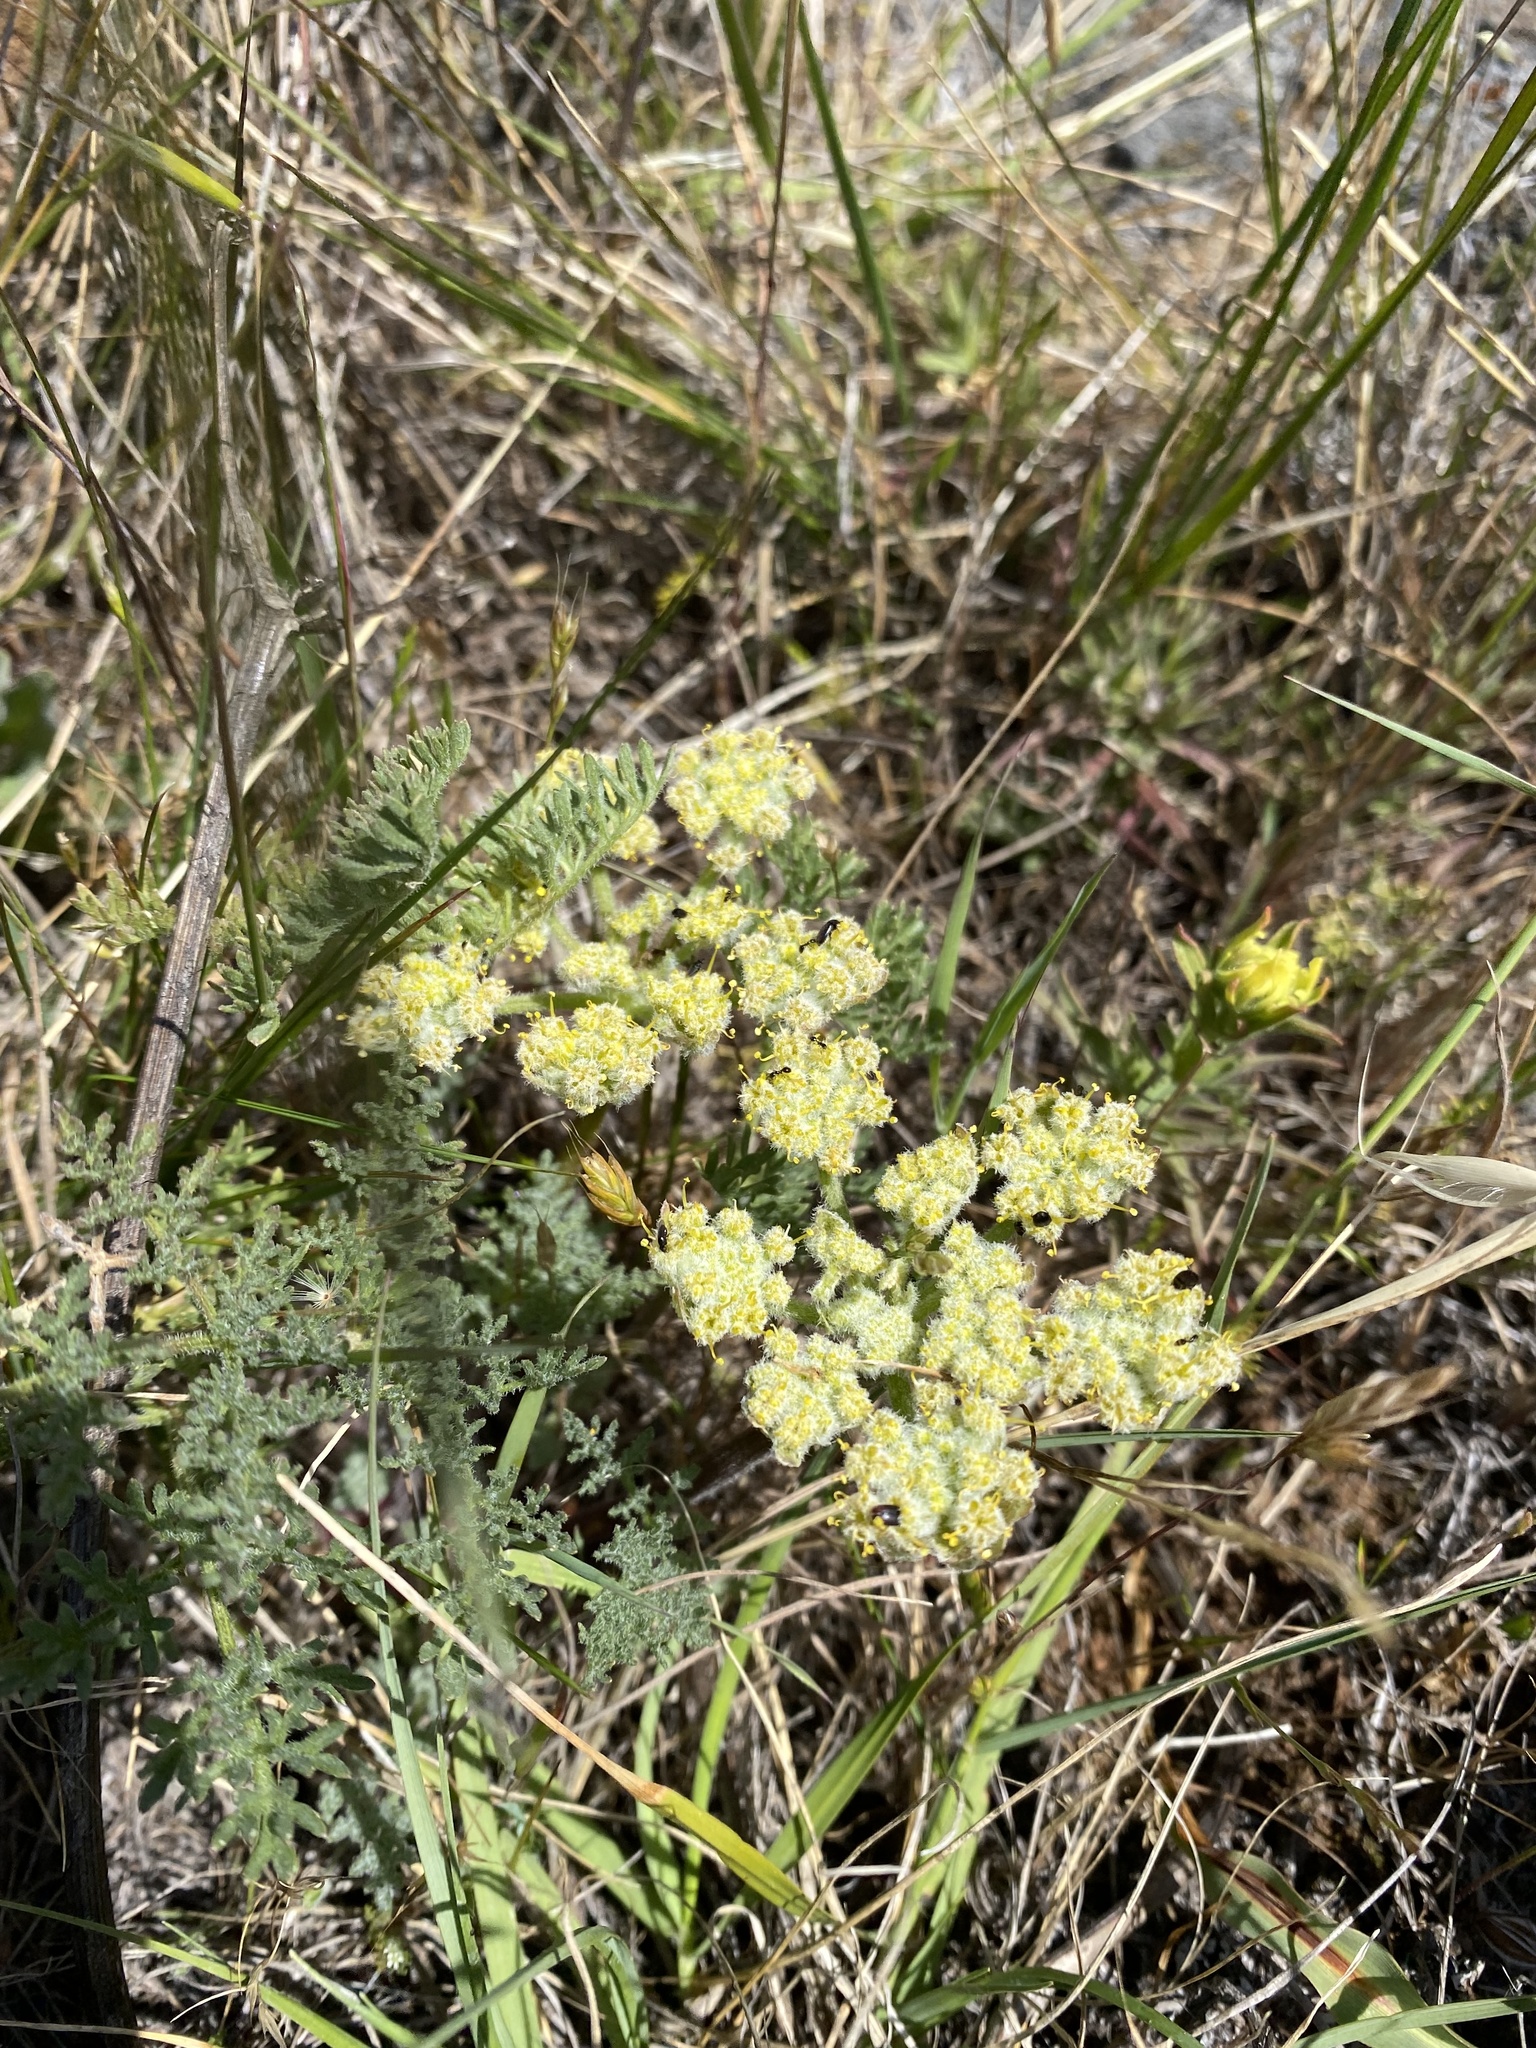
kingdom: Plantae
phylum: Tracheophyta
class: Magnoliopsida
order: Apiales
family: Apiaceae
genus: Lomatium
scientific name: Lomatium dasycarpum
